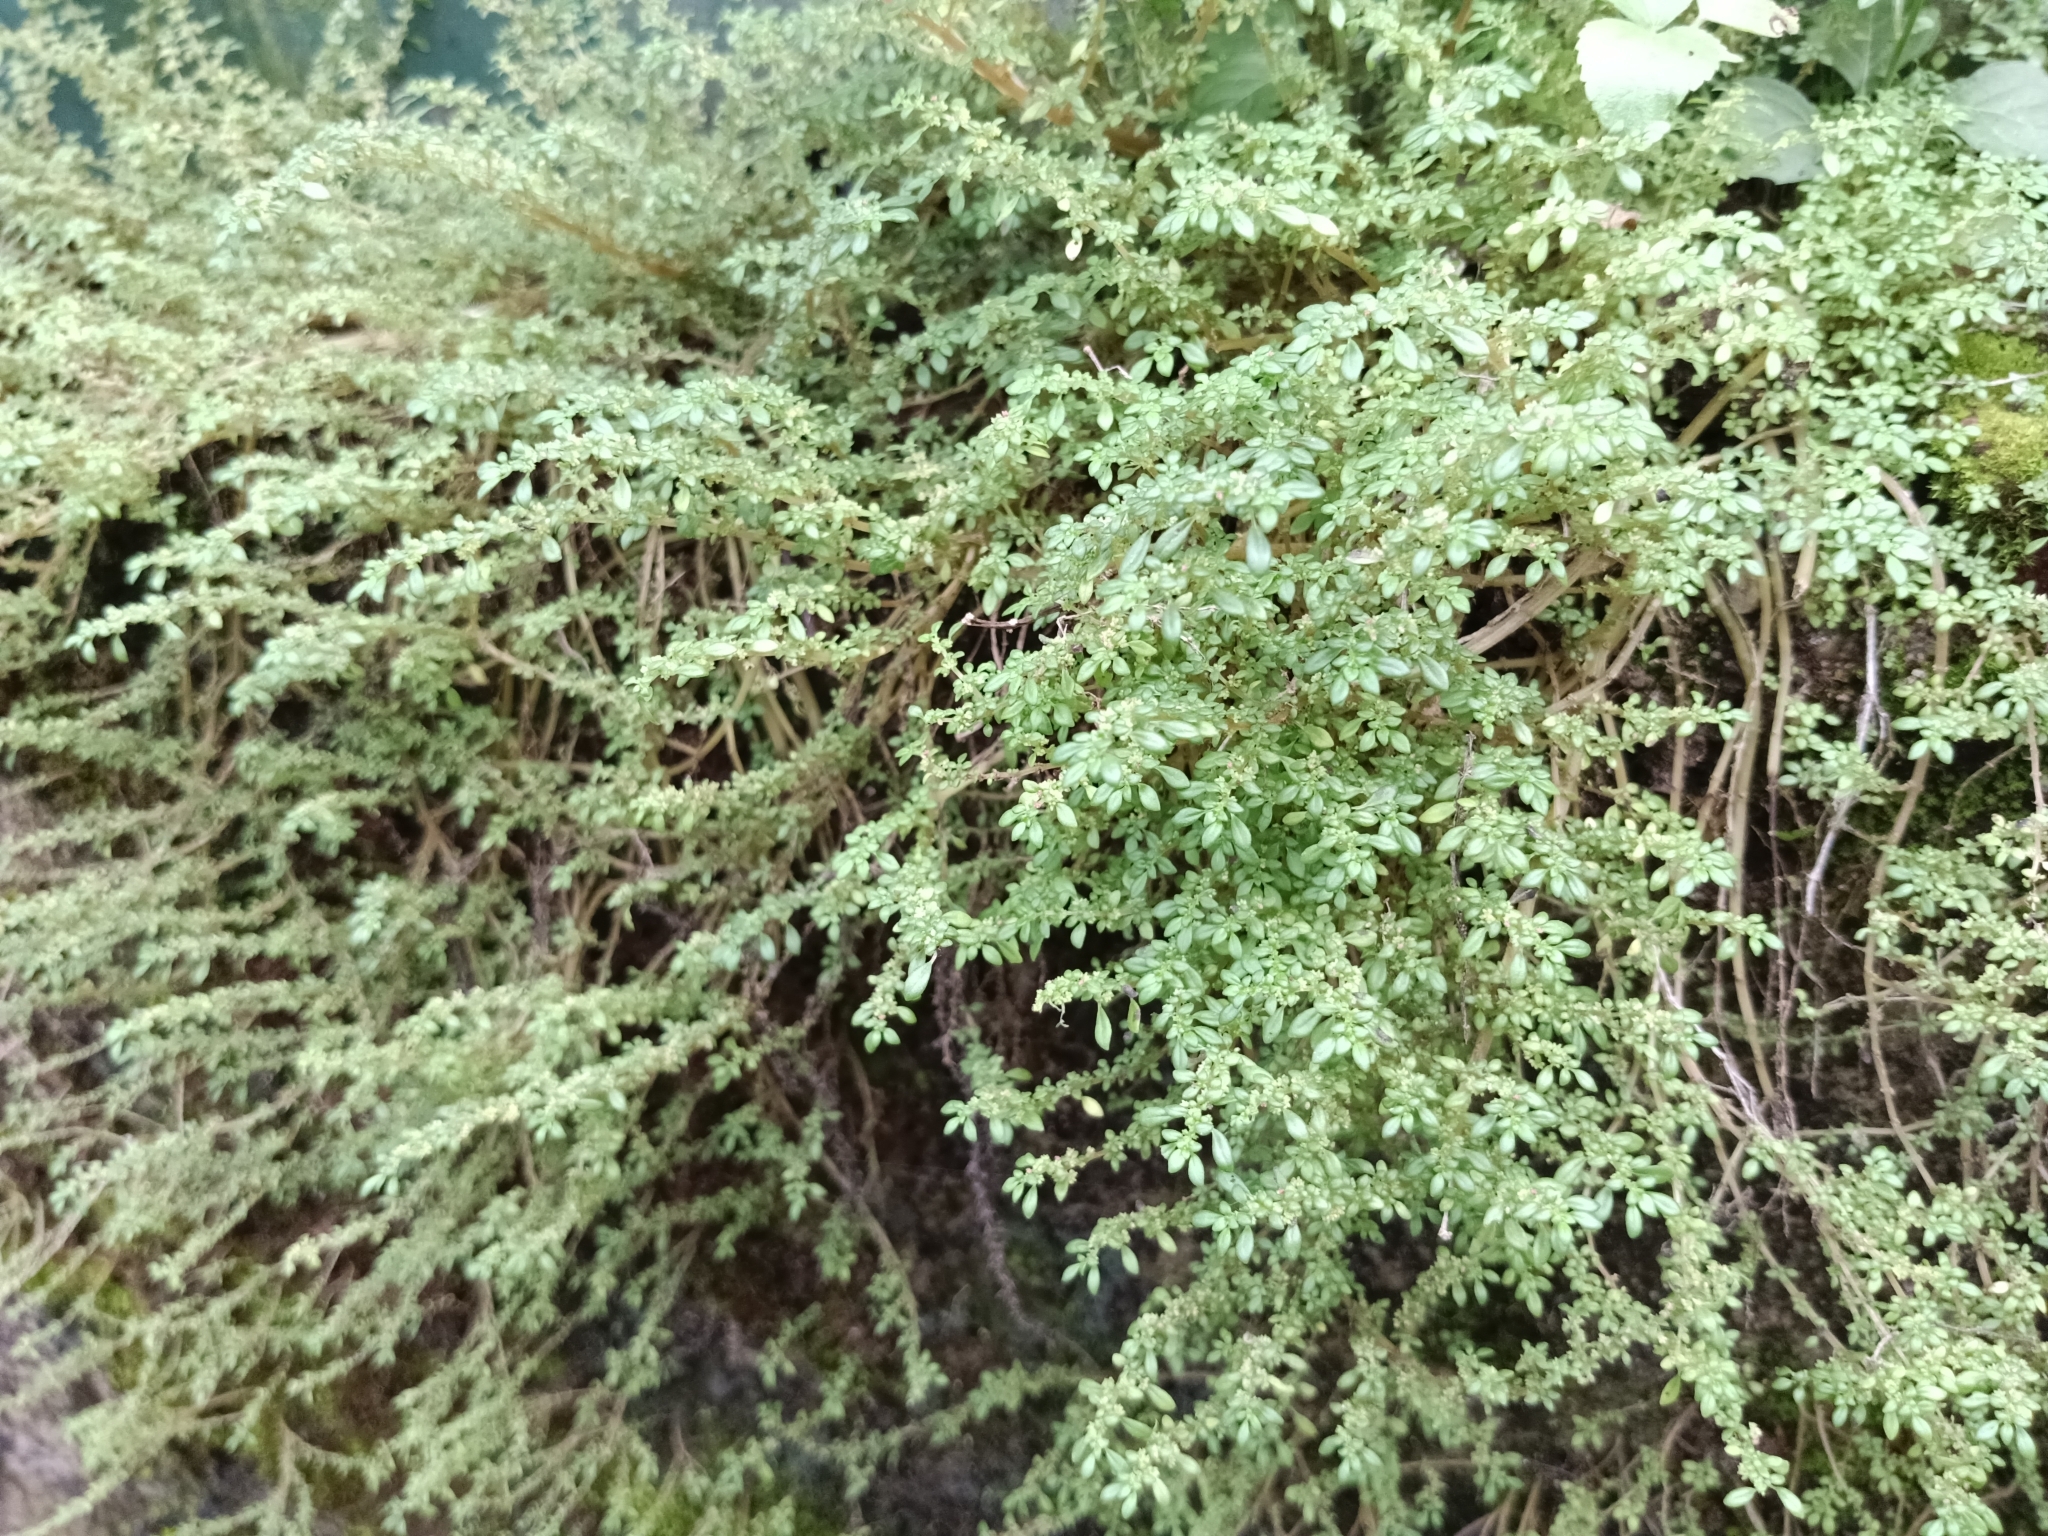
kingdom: Plantae
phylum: Tracheophyta
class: Magnoliopsida
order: Rosales
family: Urticaceae
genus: Pilea
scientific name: Pilea microphylla
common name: Artillery-plant
